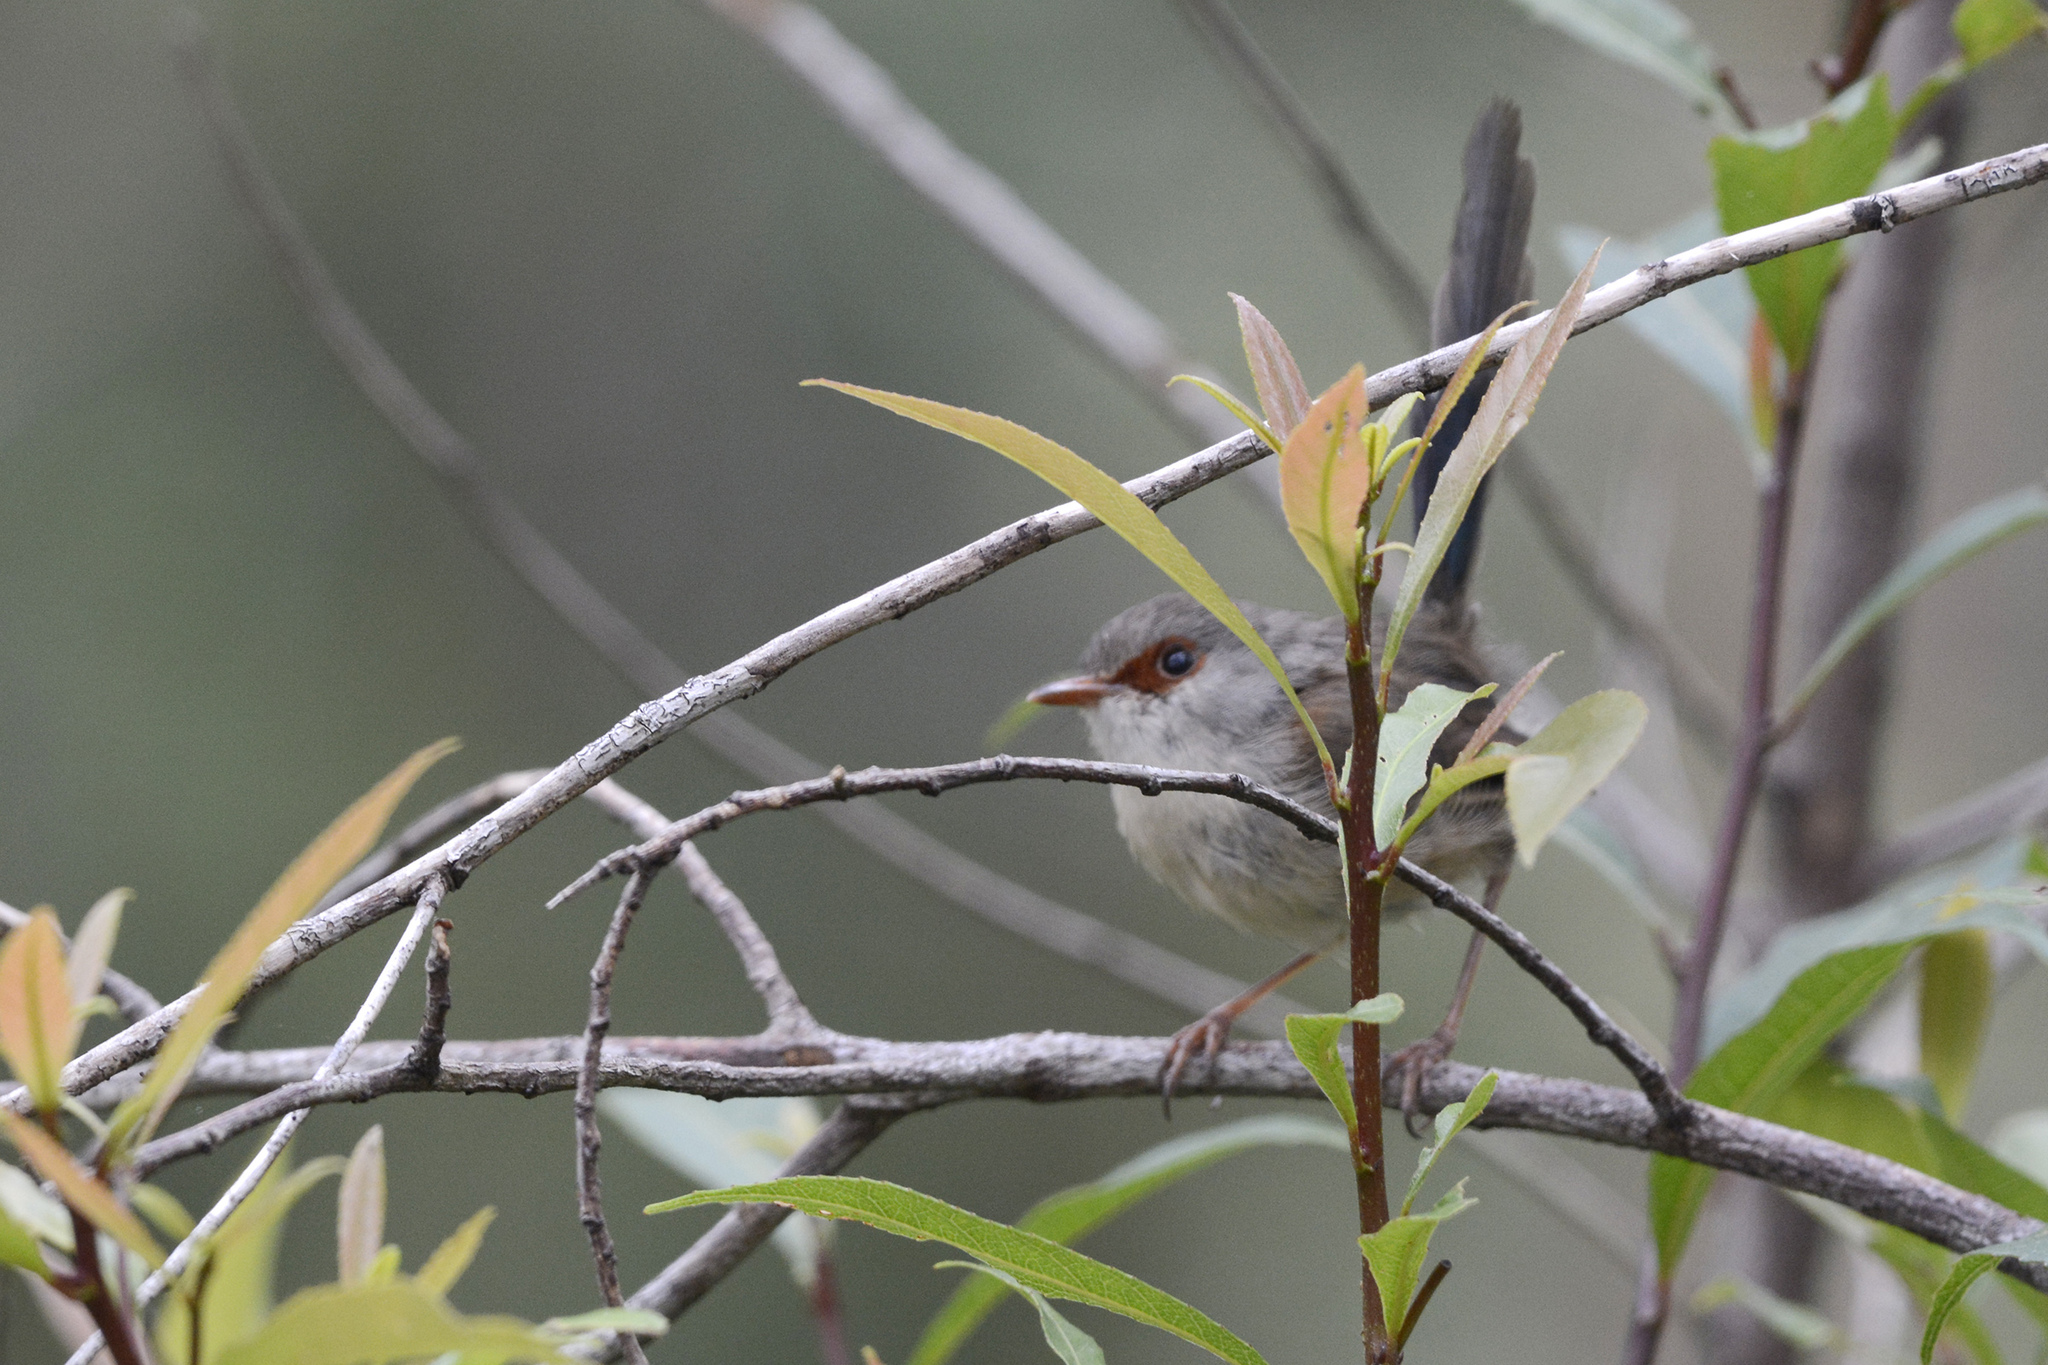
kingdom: Animalia
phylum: Chordata
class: Aves
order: Passeriformes
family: Maluridae
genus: Malurus
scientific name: Malurus lamberti
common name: Variegated fairywren
